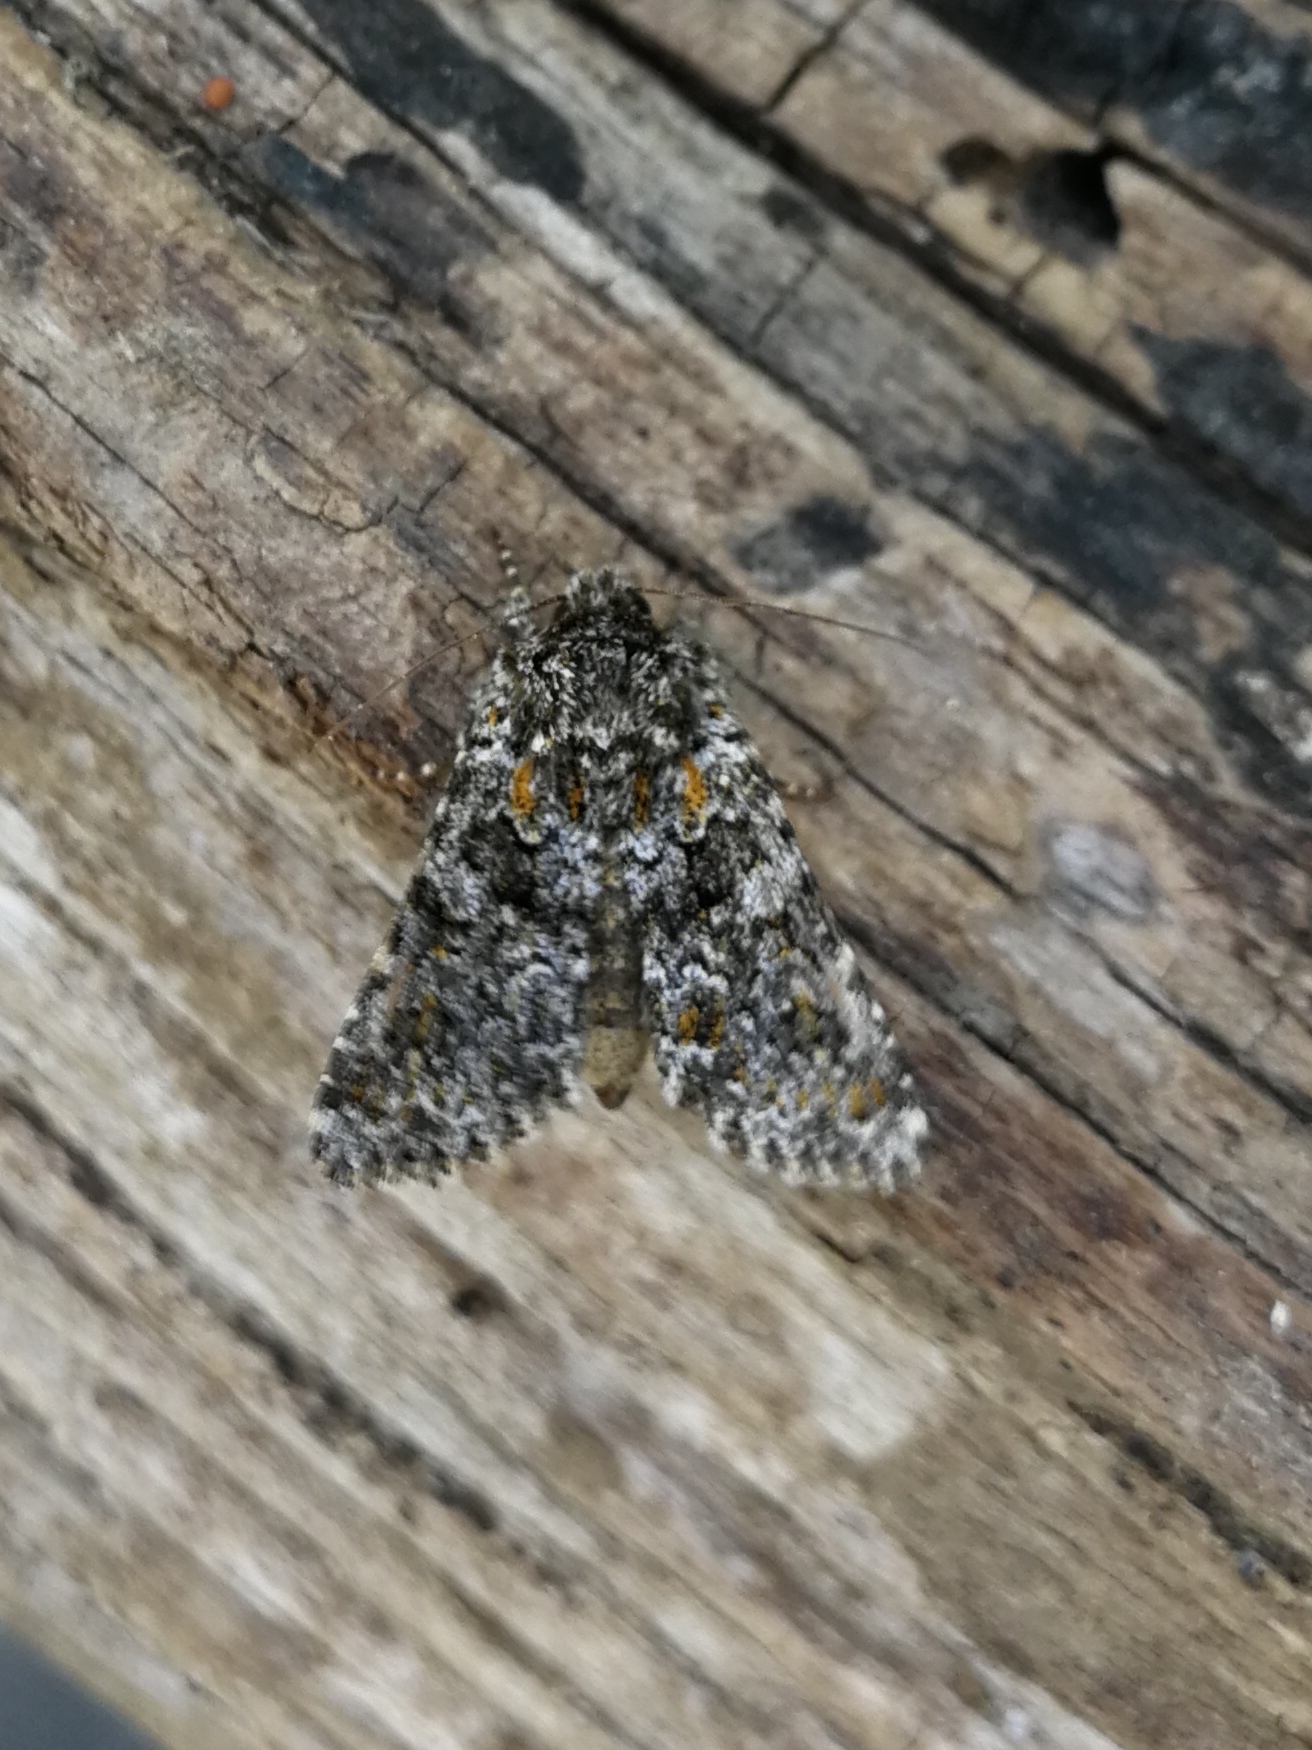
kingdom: Animalia
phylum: Arthropoda
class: Insecta
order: Lepidoptera
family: Noctuidae
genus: Hecatera
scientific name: Hecatera dysodea
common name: Small ranunculus
